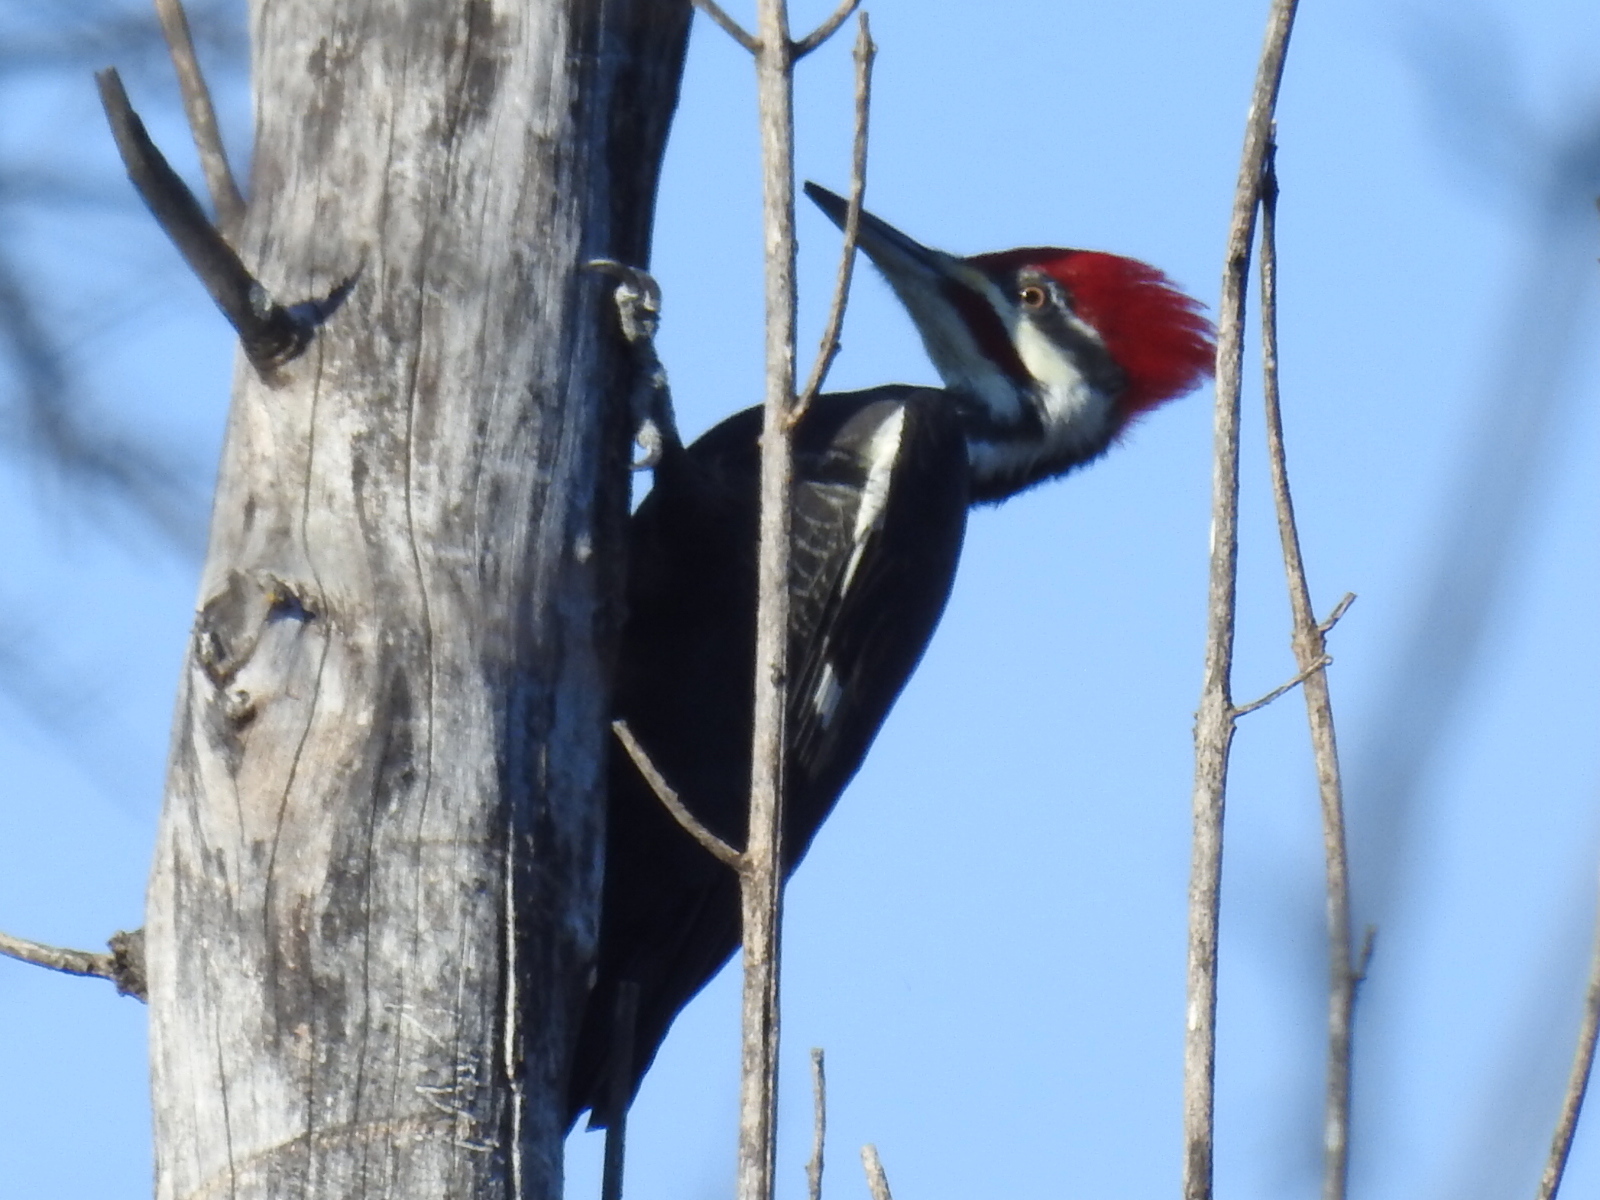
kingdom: Animalia
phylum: Chordata
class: Aves
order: Piciformes
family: Picidae
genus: Dryocopus
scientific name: Dryocopus pileatus
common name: Pileated woodpecker
